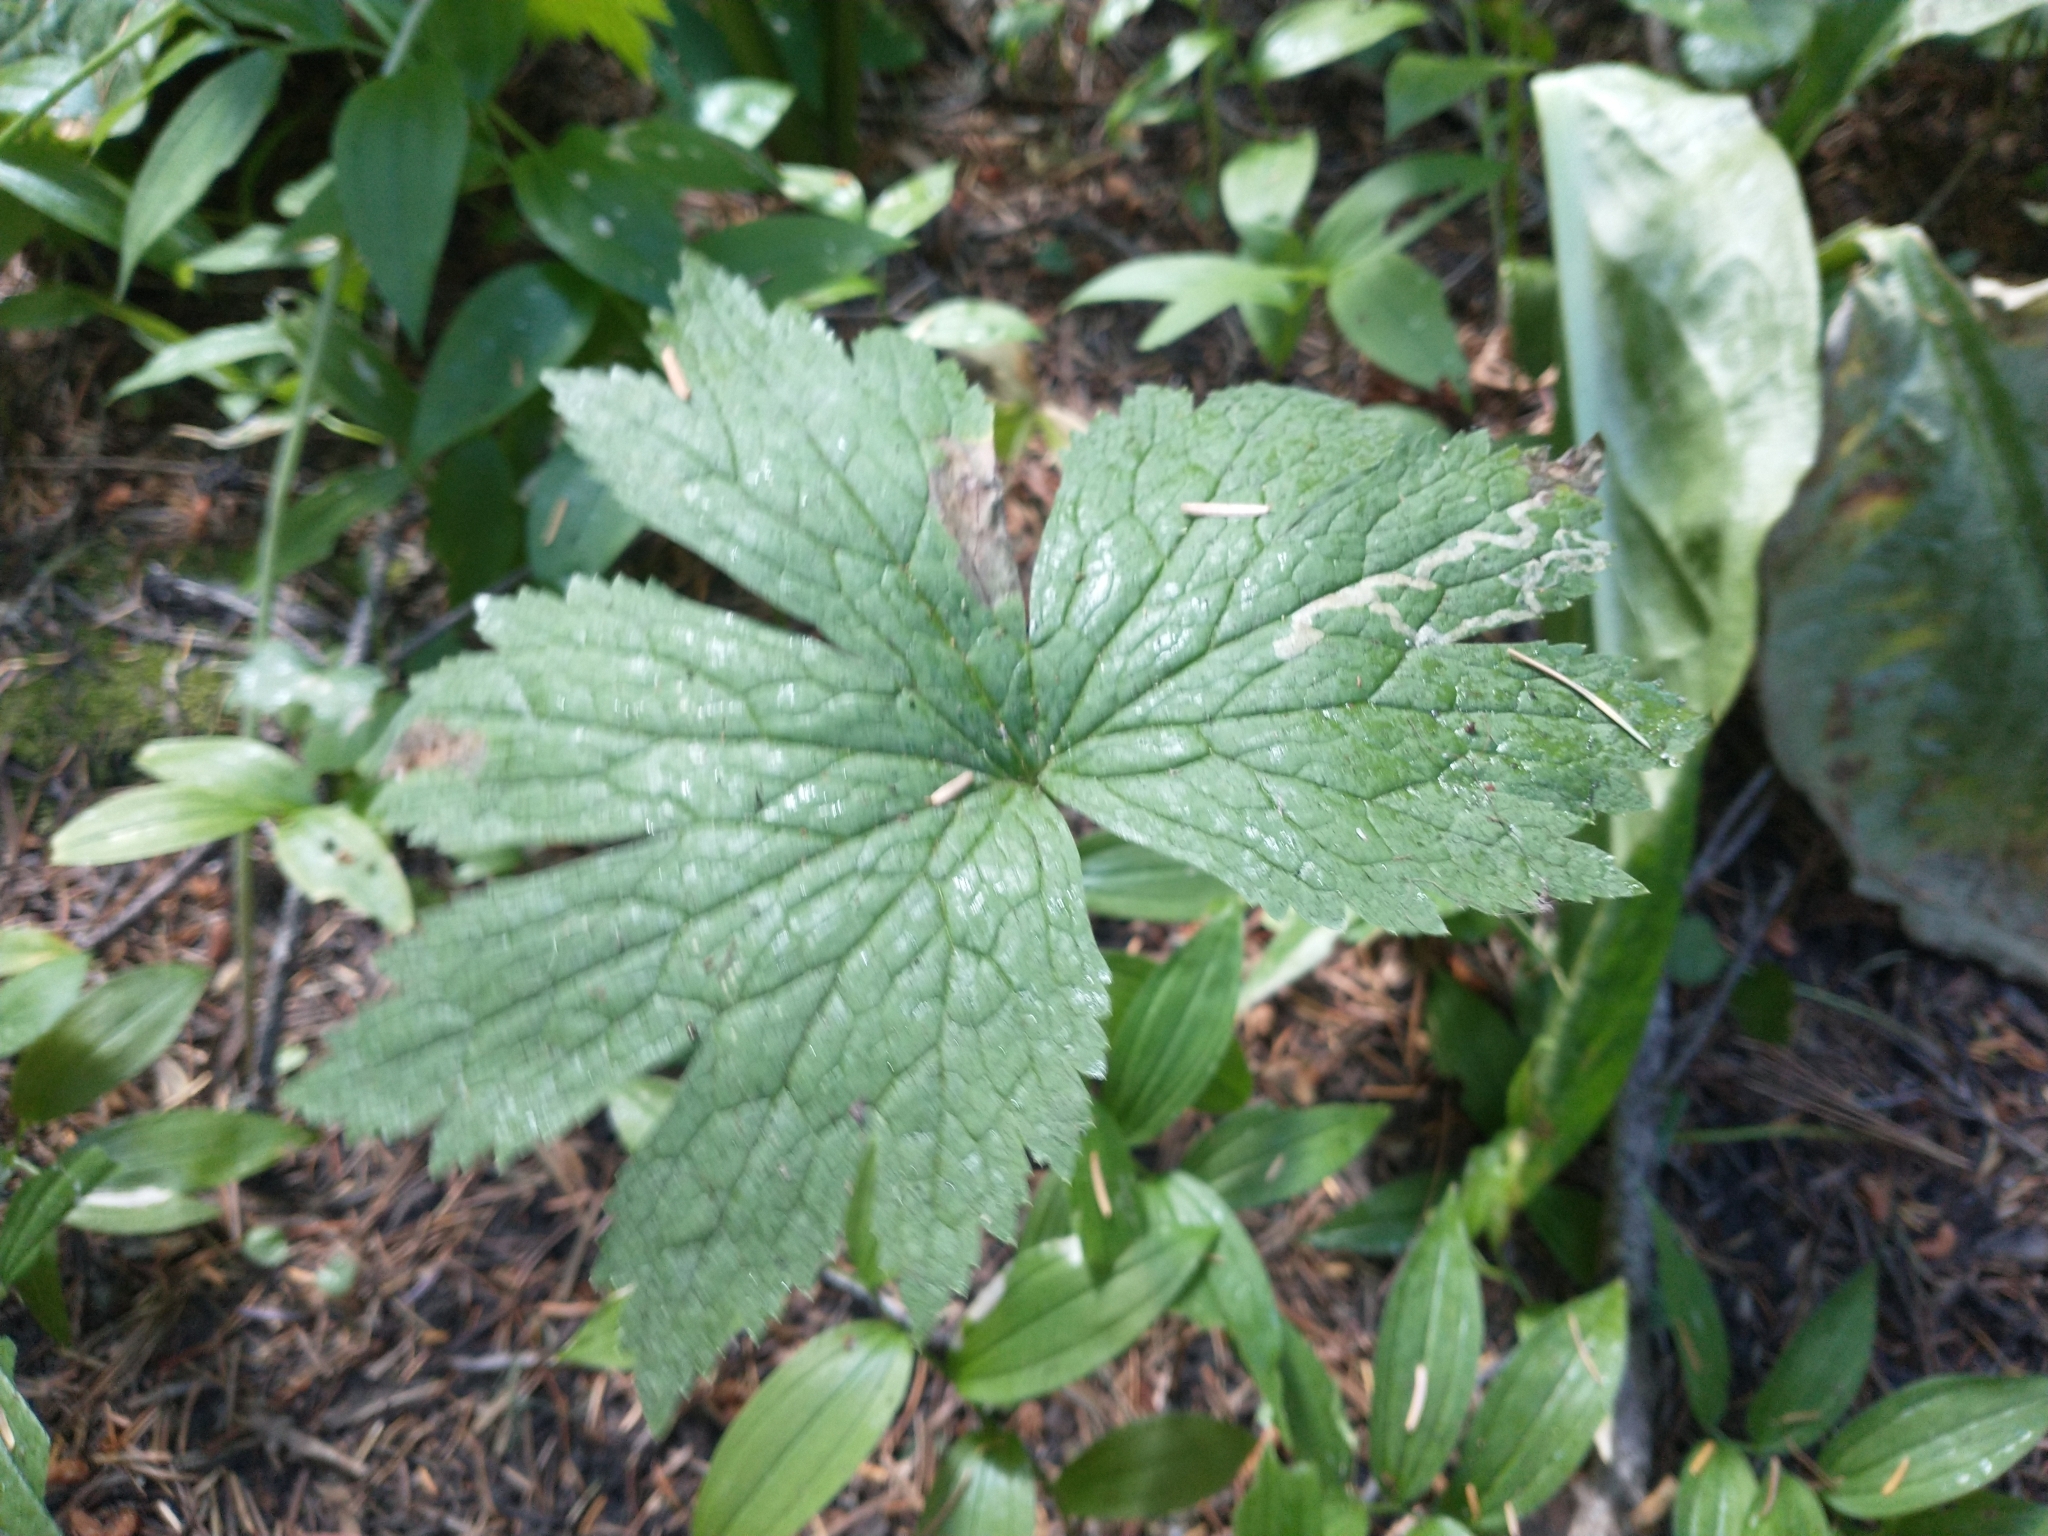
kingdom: Plantae
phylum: Tracheophyta
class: Magnoliopsida
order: Ranunculales
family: Ranunculaceae
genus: Trautvetteria
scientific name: Trautvetteria carolinensis
